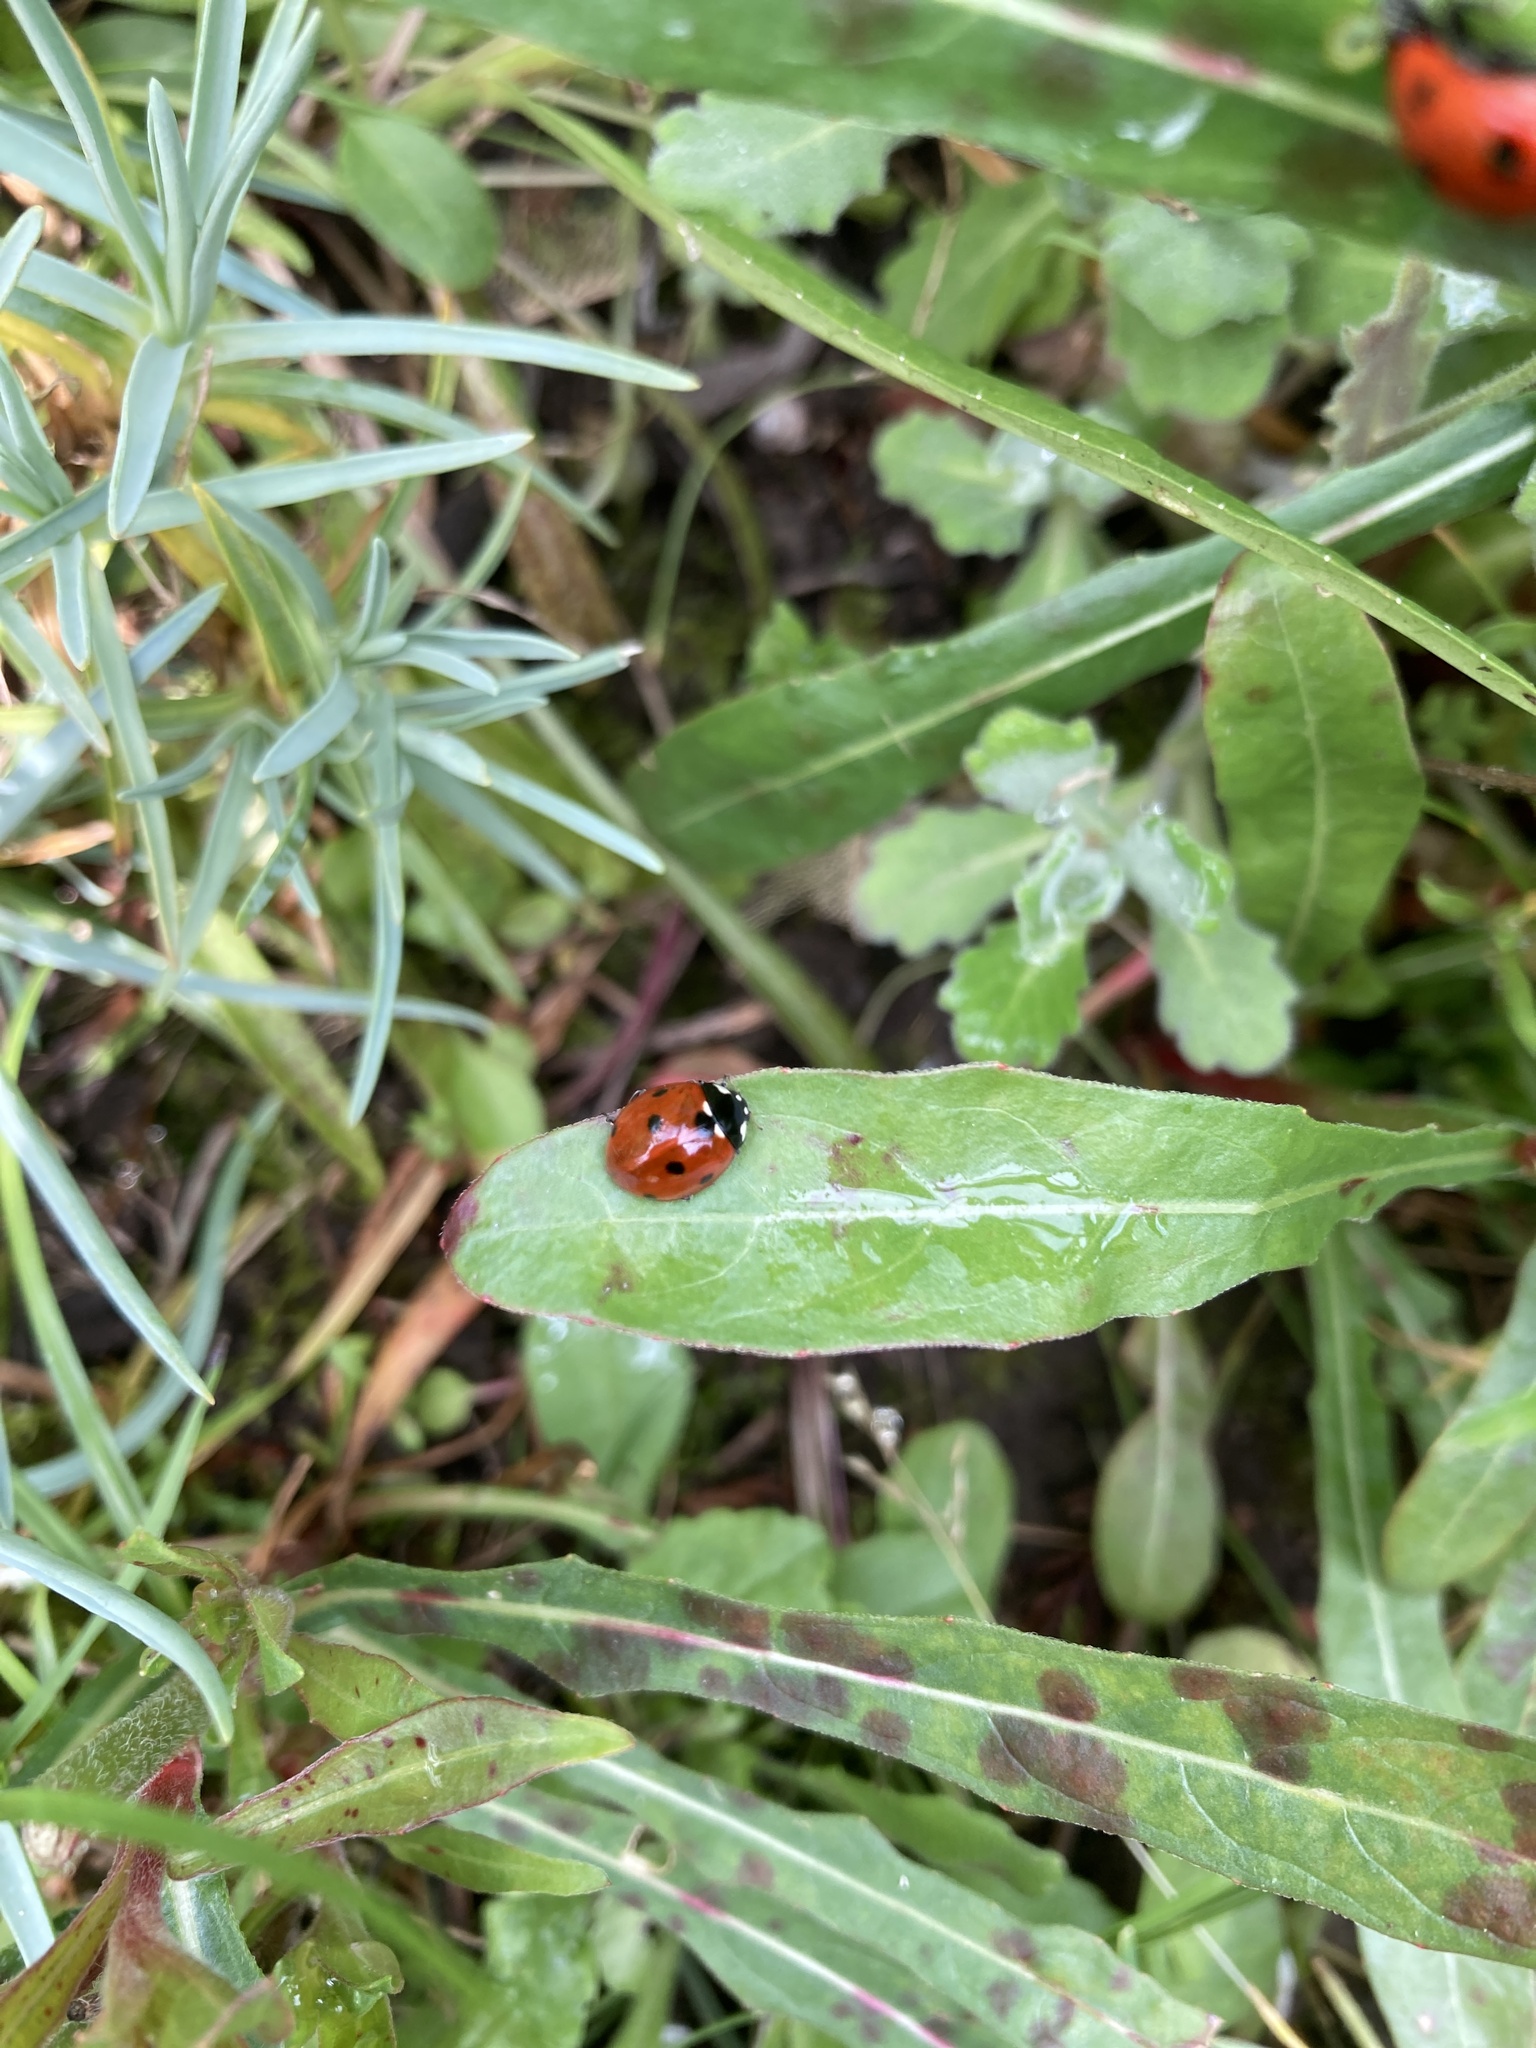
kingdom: Animalia
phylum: Arthropoda
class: Insecta
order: Coleoptera
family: Coccinellidae
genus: Coccinella
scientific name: Coccinella septempunctata
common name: Sevenspotted lady beetle
